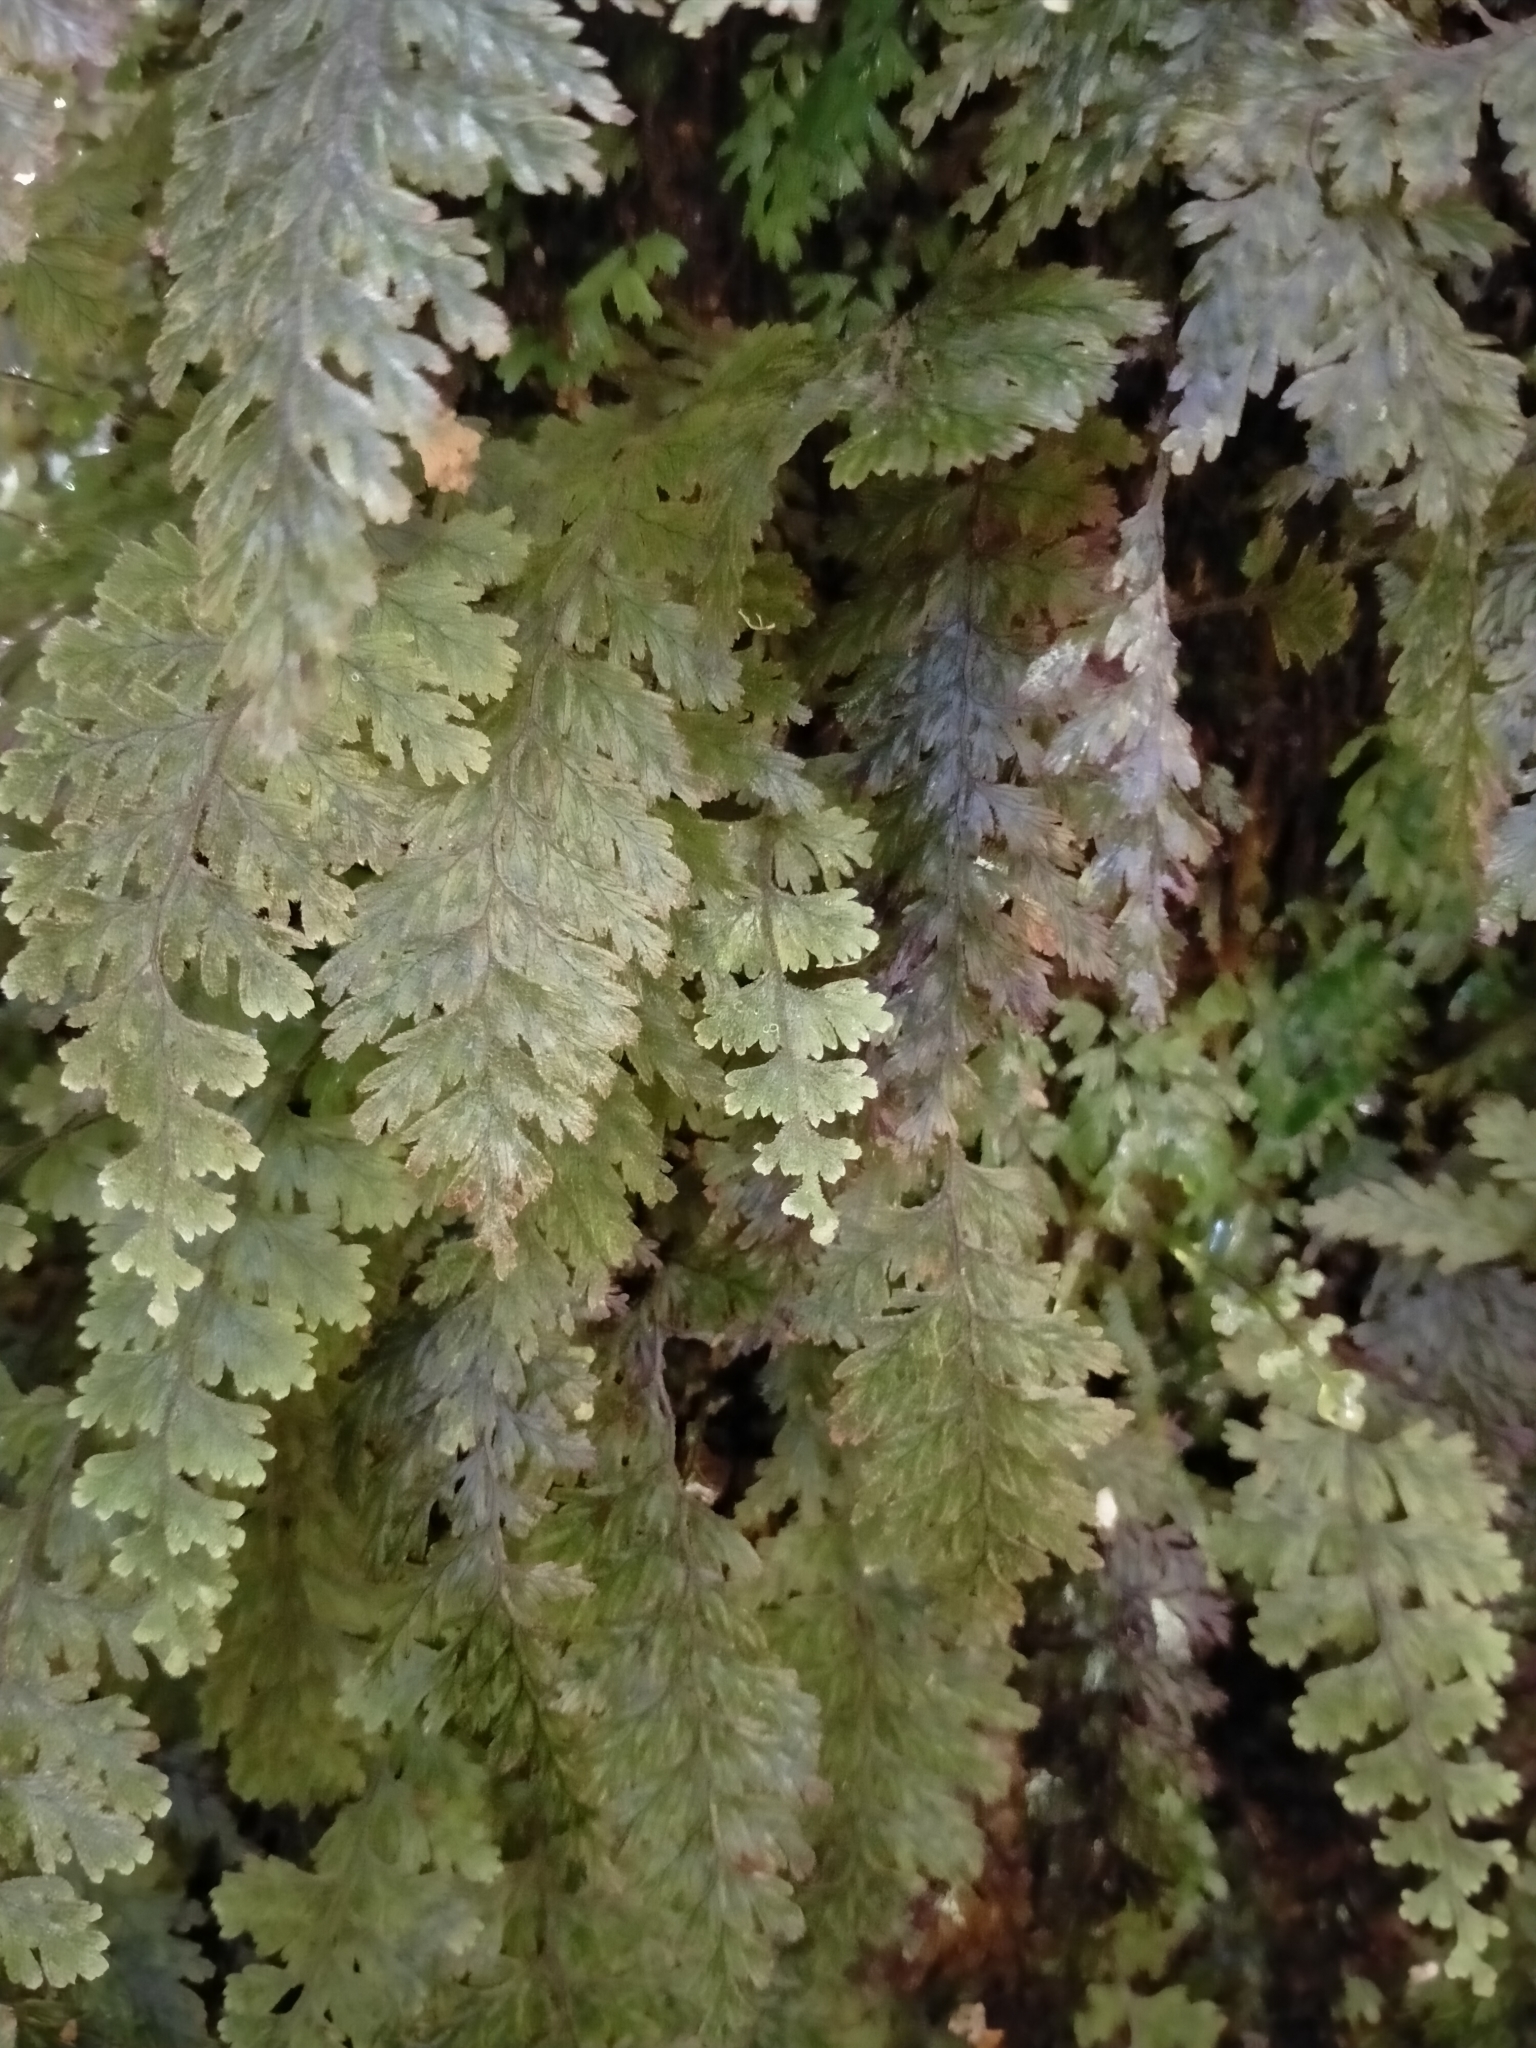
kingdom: Plantae
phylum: Tracheophyta
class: Polypodiopsida
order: Hymenophyllales
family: Hymenophyllaceae
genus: Hymenophyllum
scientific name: Hymenophyllum frankliniae
